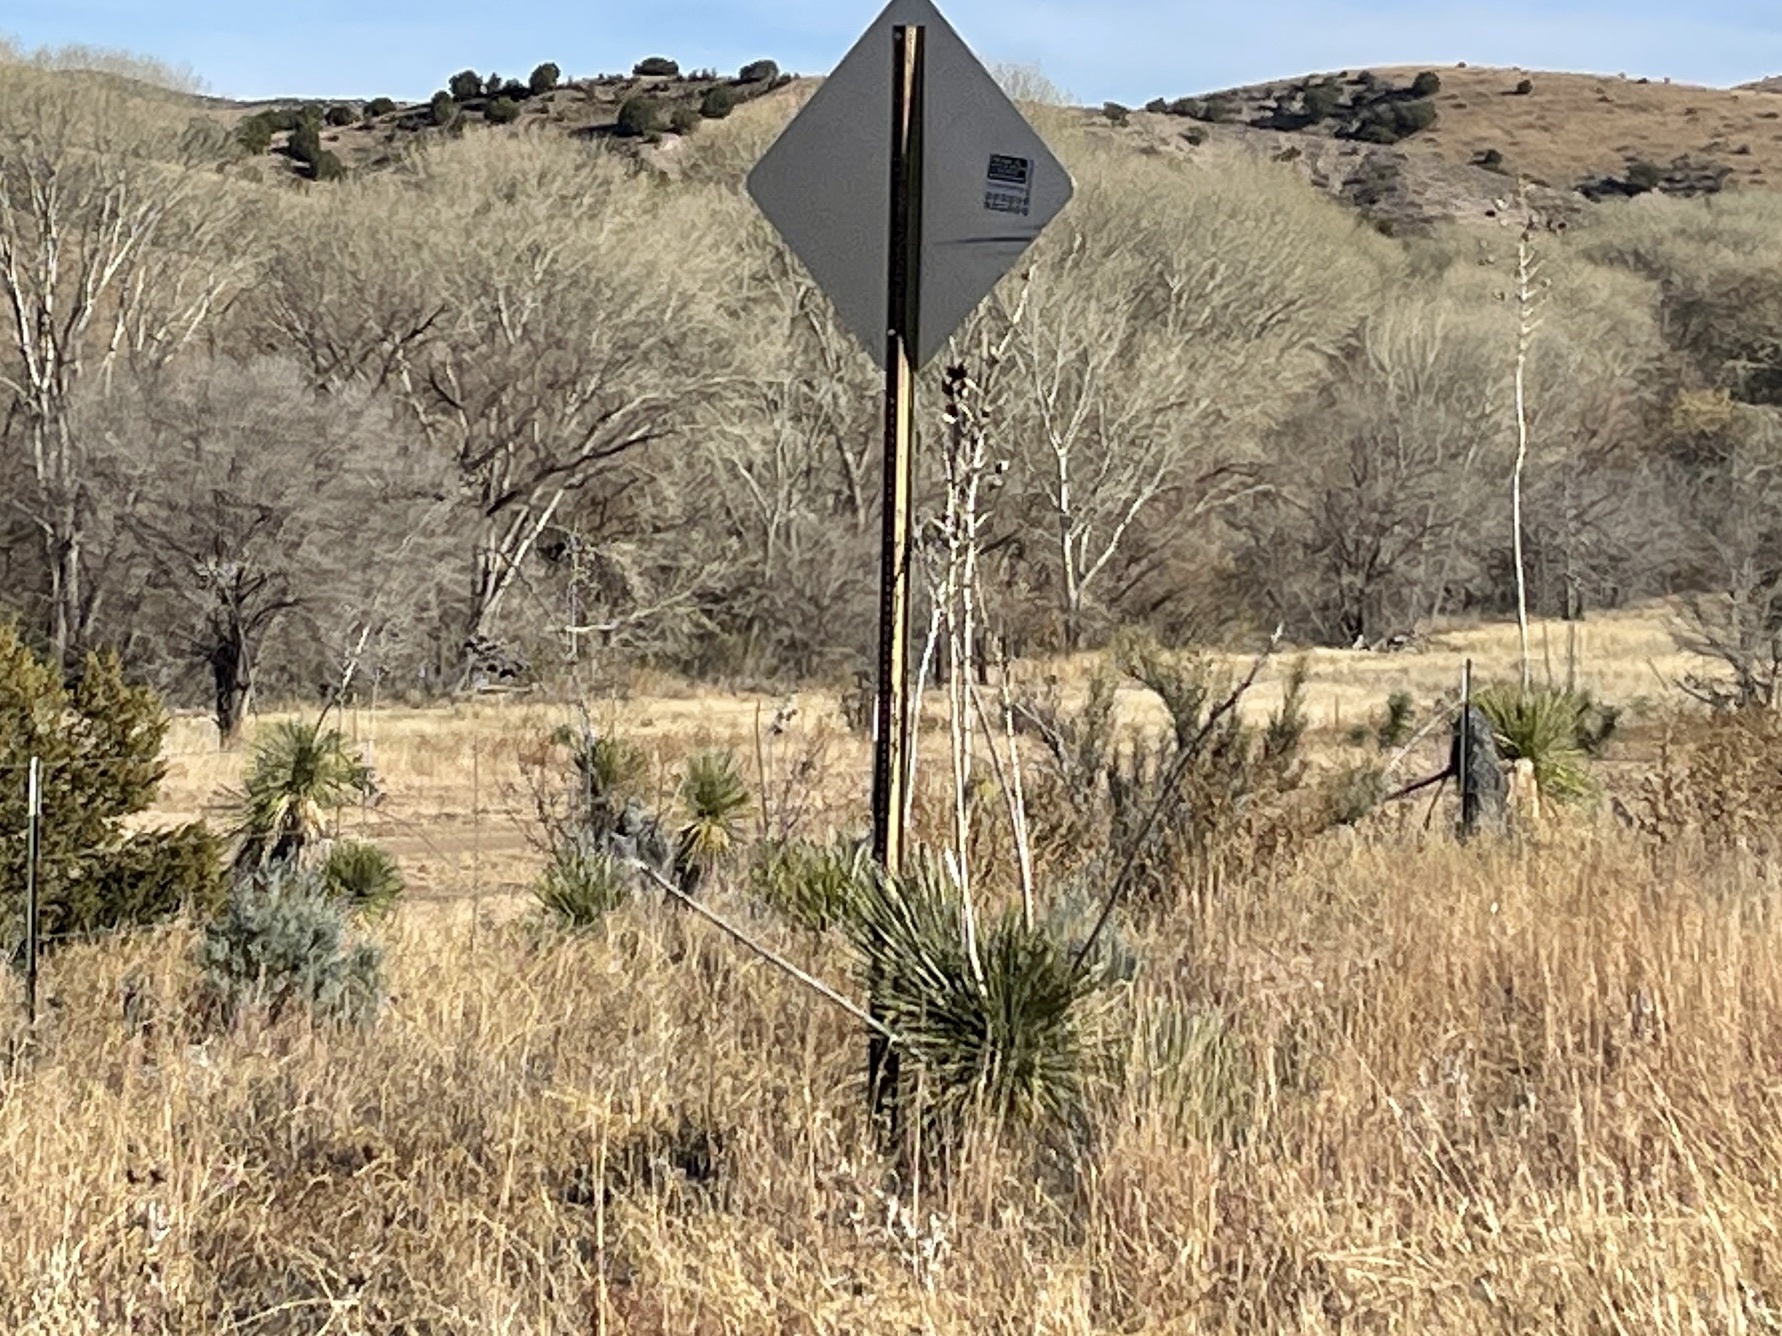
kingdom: Plantae
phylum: Tracheophyta
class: Liliopsida
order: Asparagales
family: Asparagaceae
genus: Yucca
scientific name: Yucca elata
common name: Palmella
